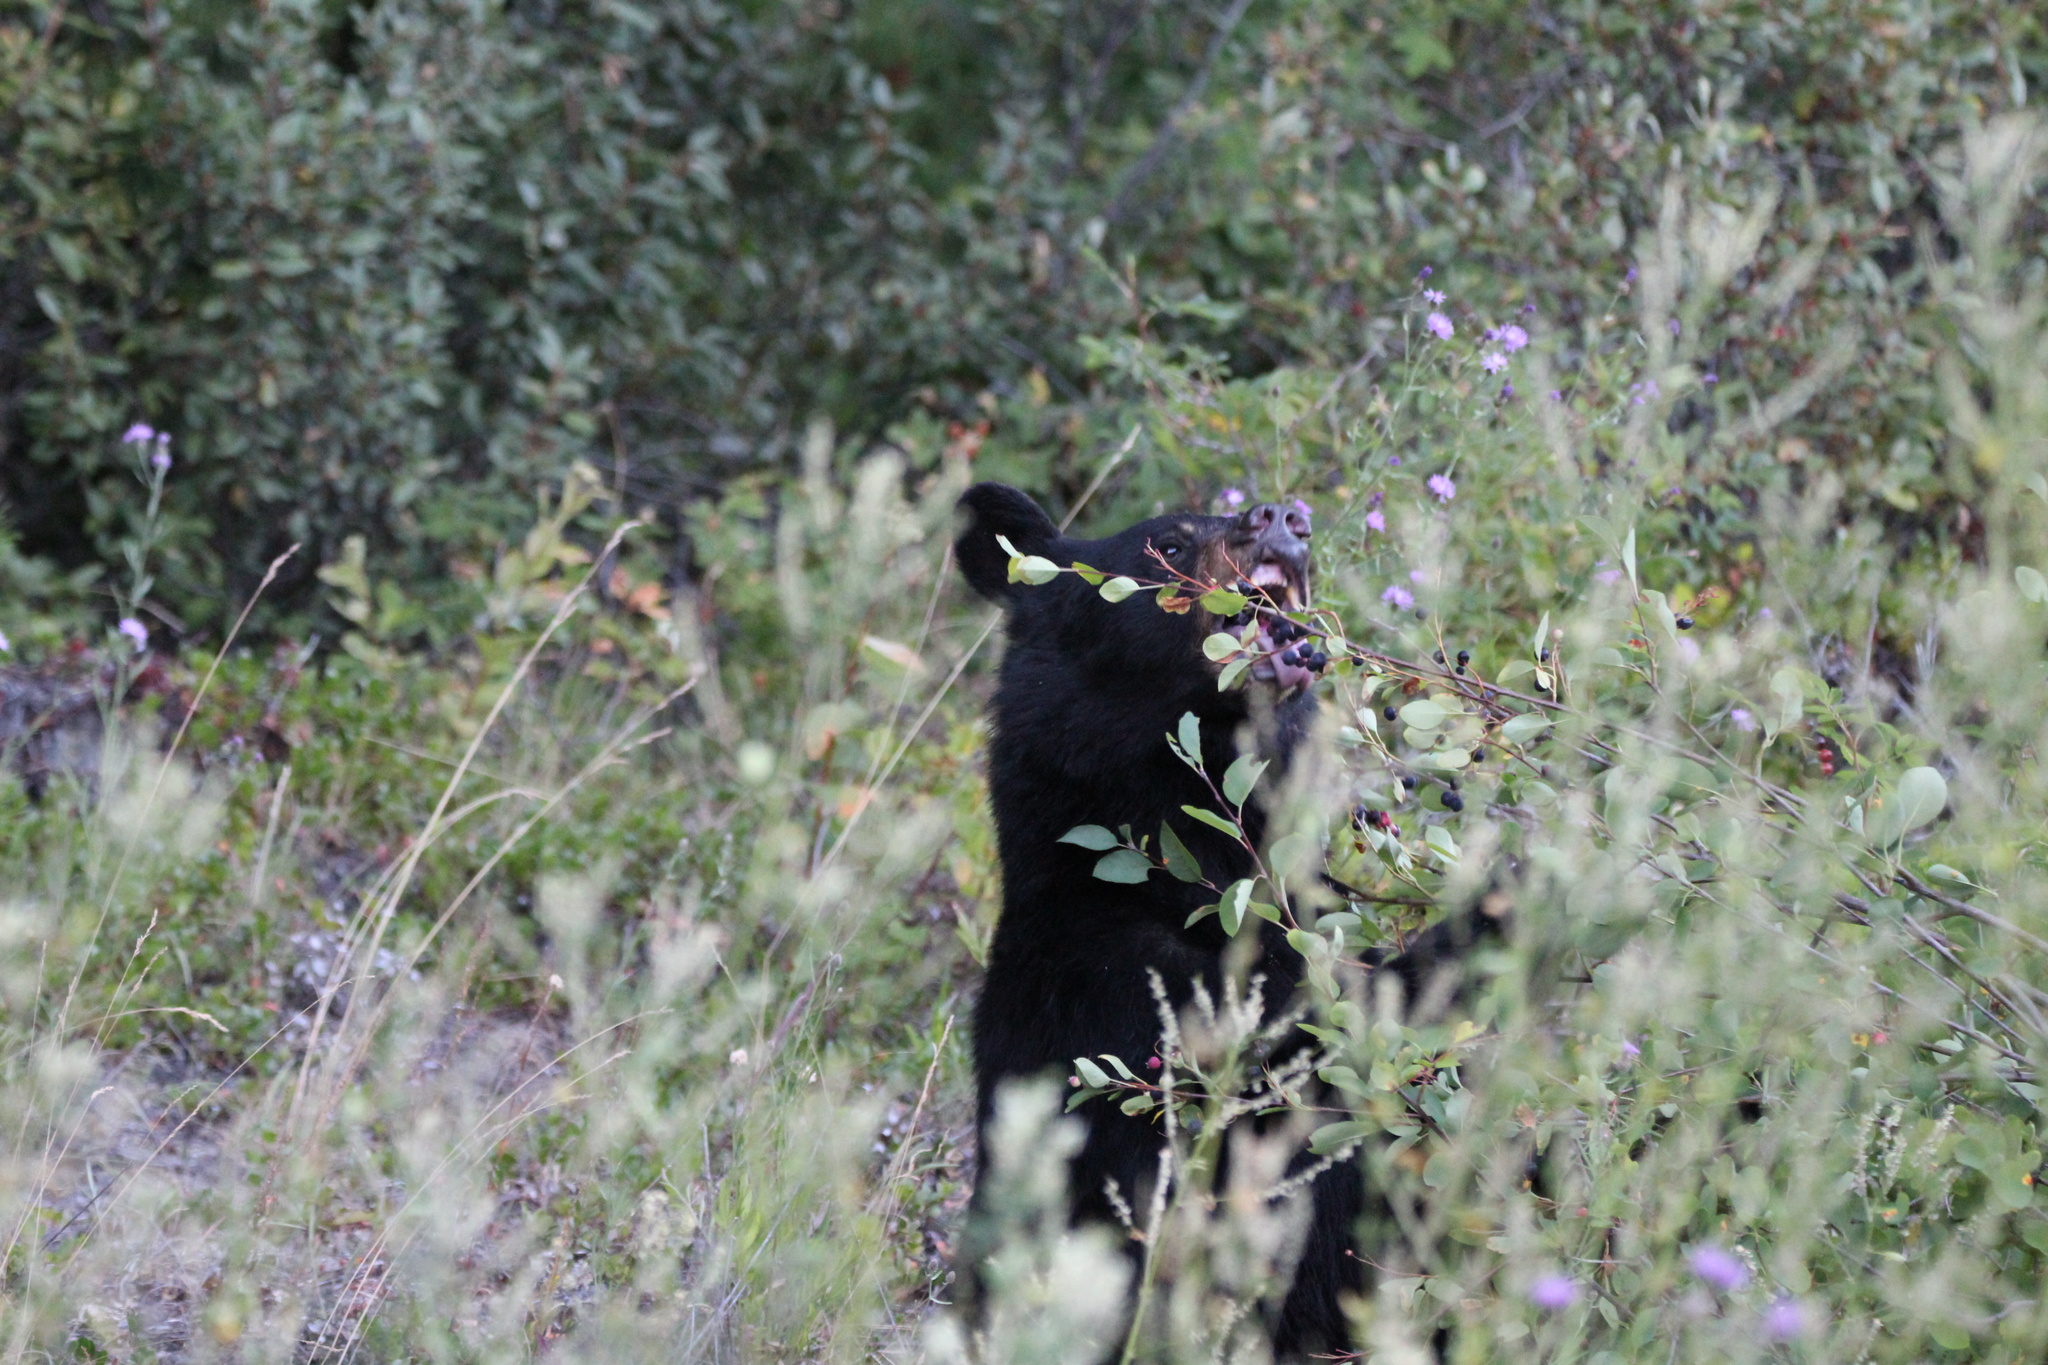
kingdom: Animalia
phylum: Chordata
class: Mammalia
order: Carnivora
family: Ursidae
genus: Ursus
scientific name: Ursus americanus
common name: American black bear
